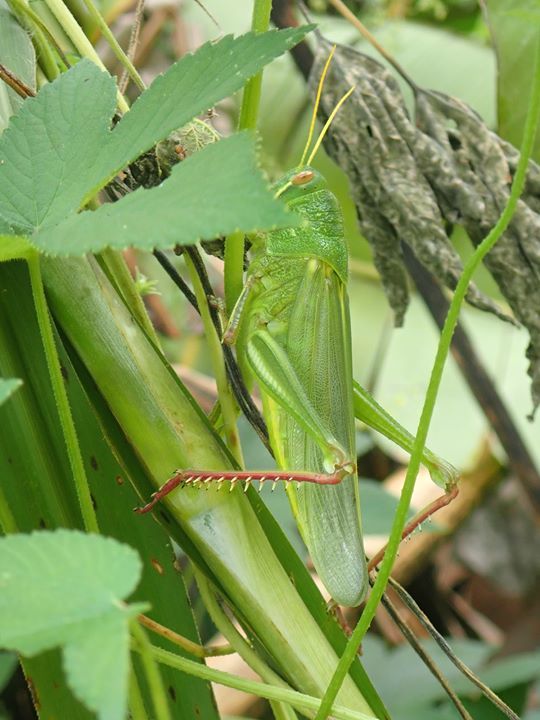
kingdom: Animalia
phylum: Arthropoda
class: Insecta
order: Orthoptera
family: Acrididae
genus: Chondracris
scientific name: Chondracris rosea
